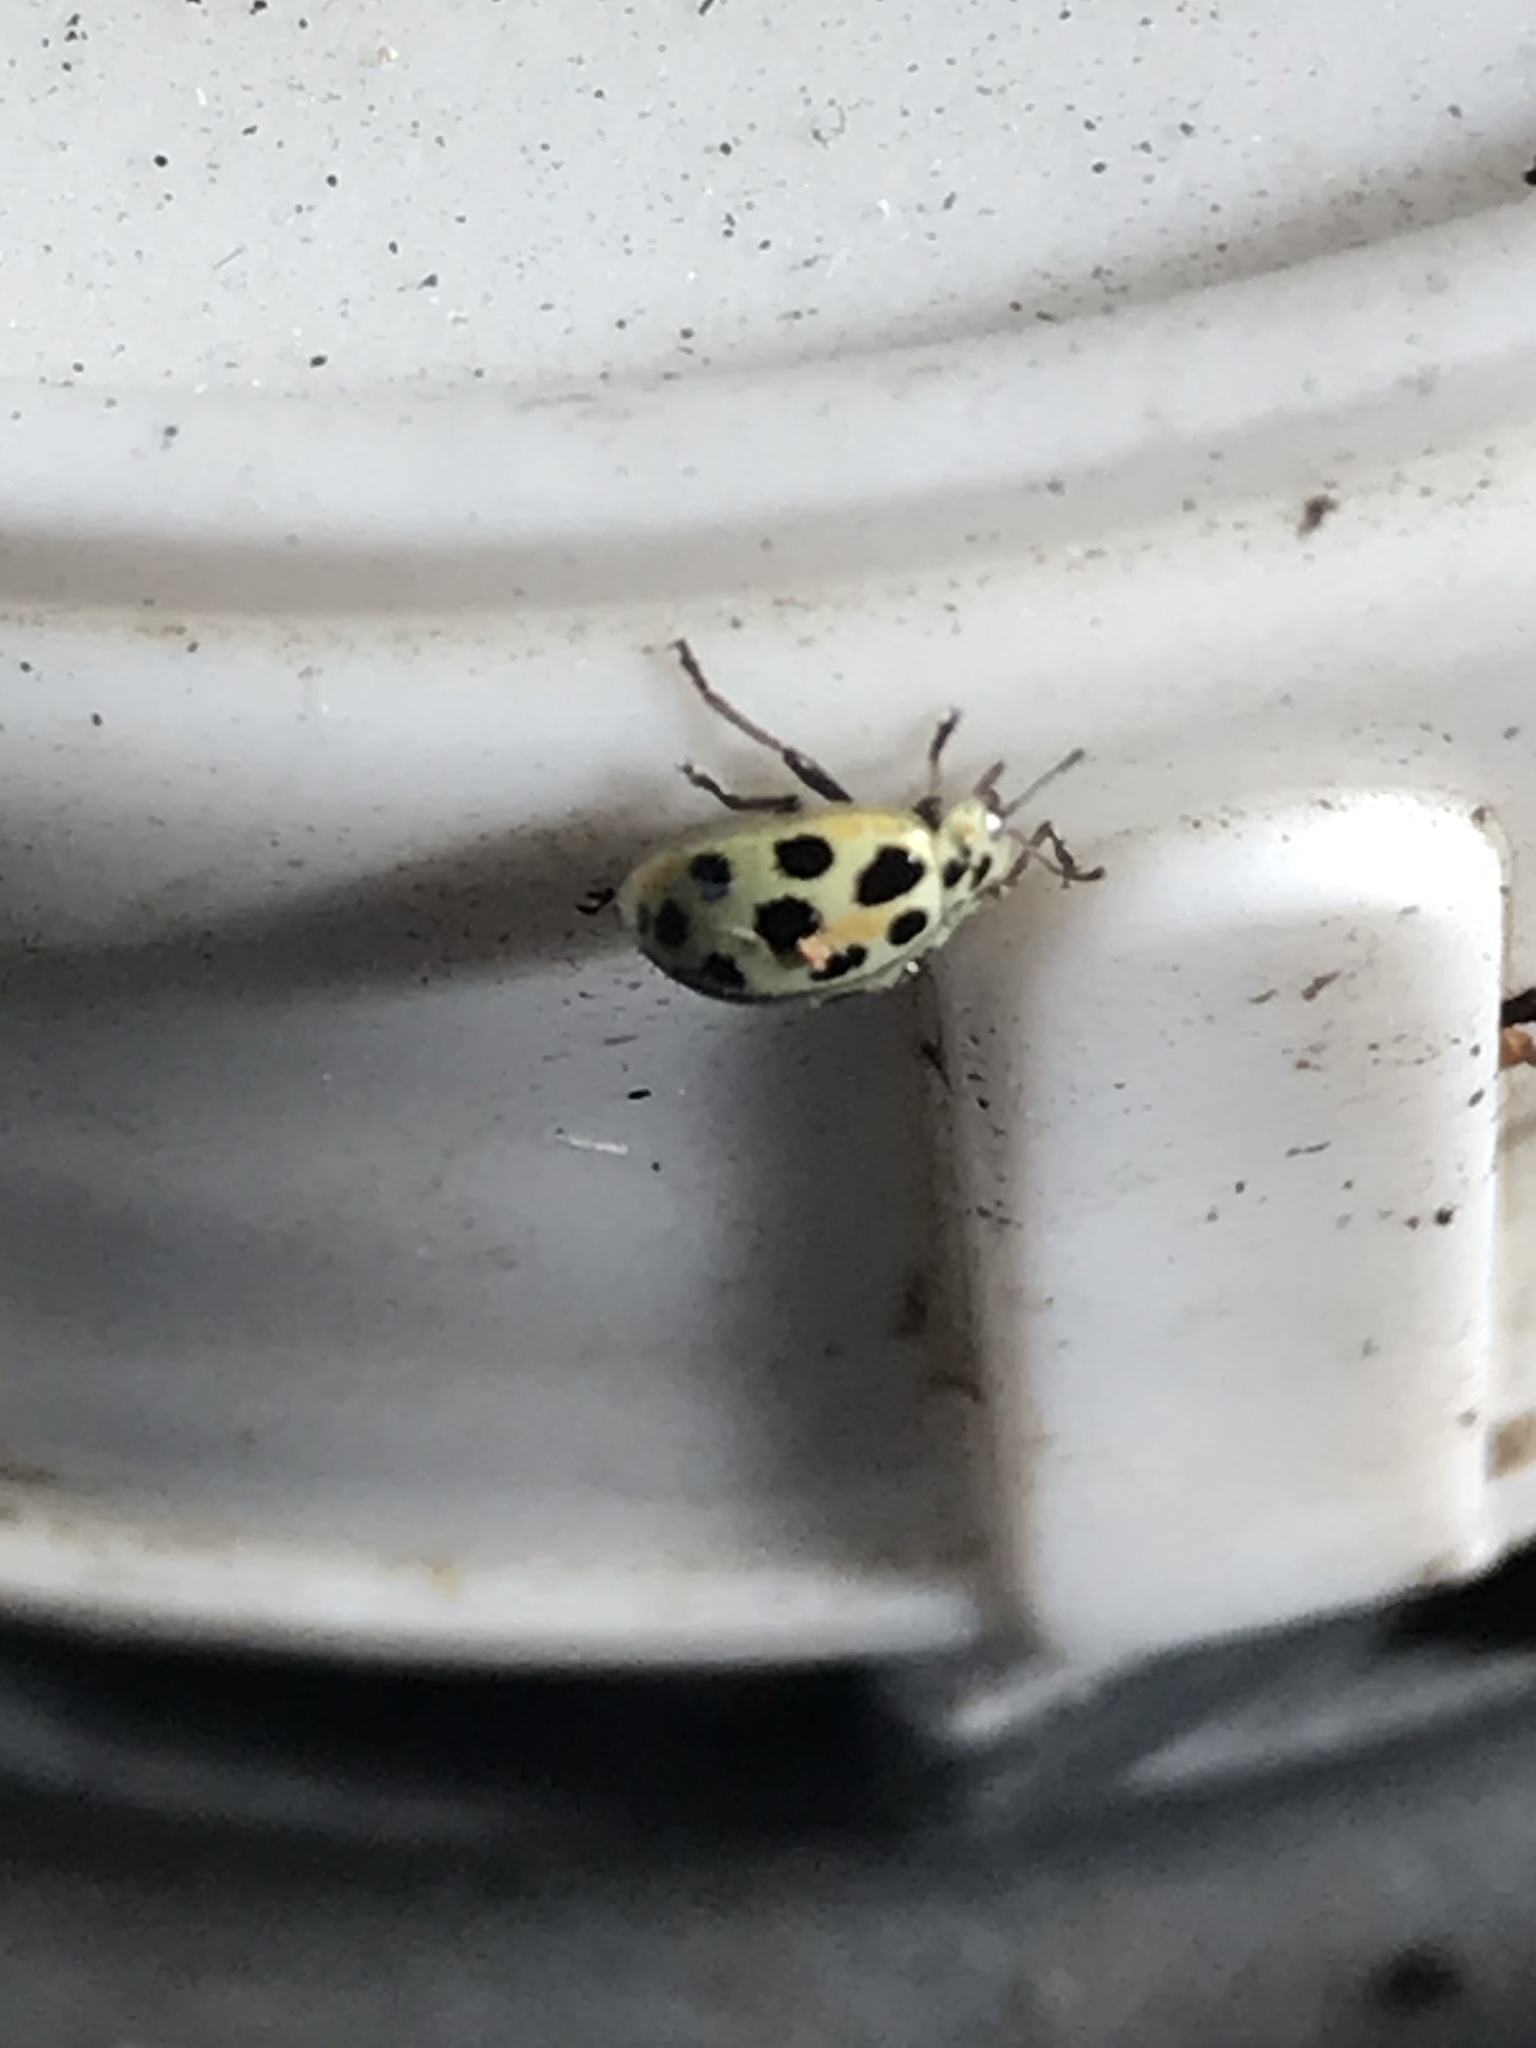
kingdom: Animalia
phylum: Arthropoda
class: Insecta
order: Coleoptera
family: Coccinellidae
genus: Psyllobora
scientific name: Psyllobora
